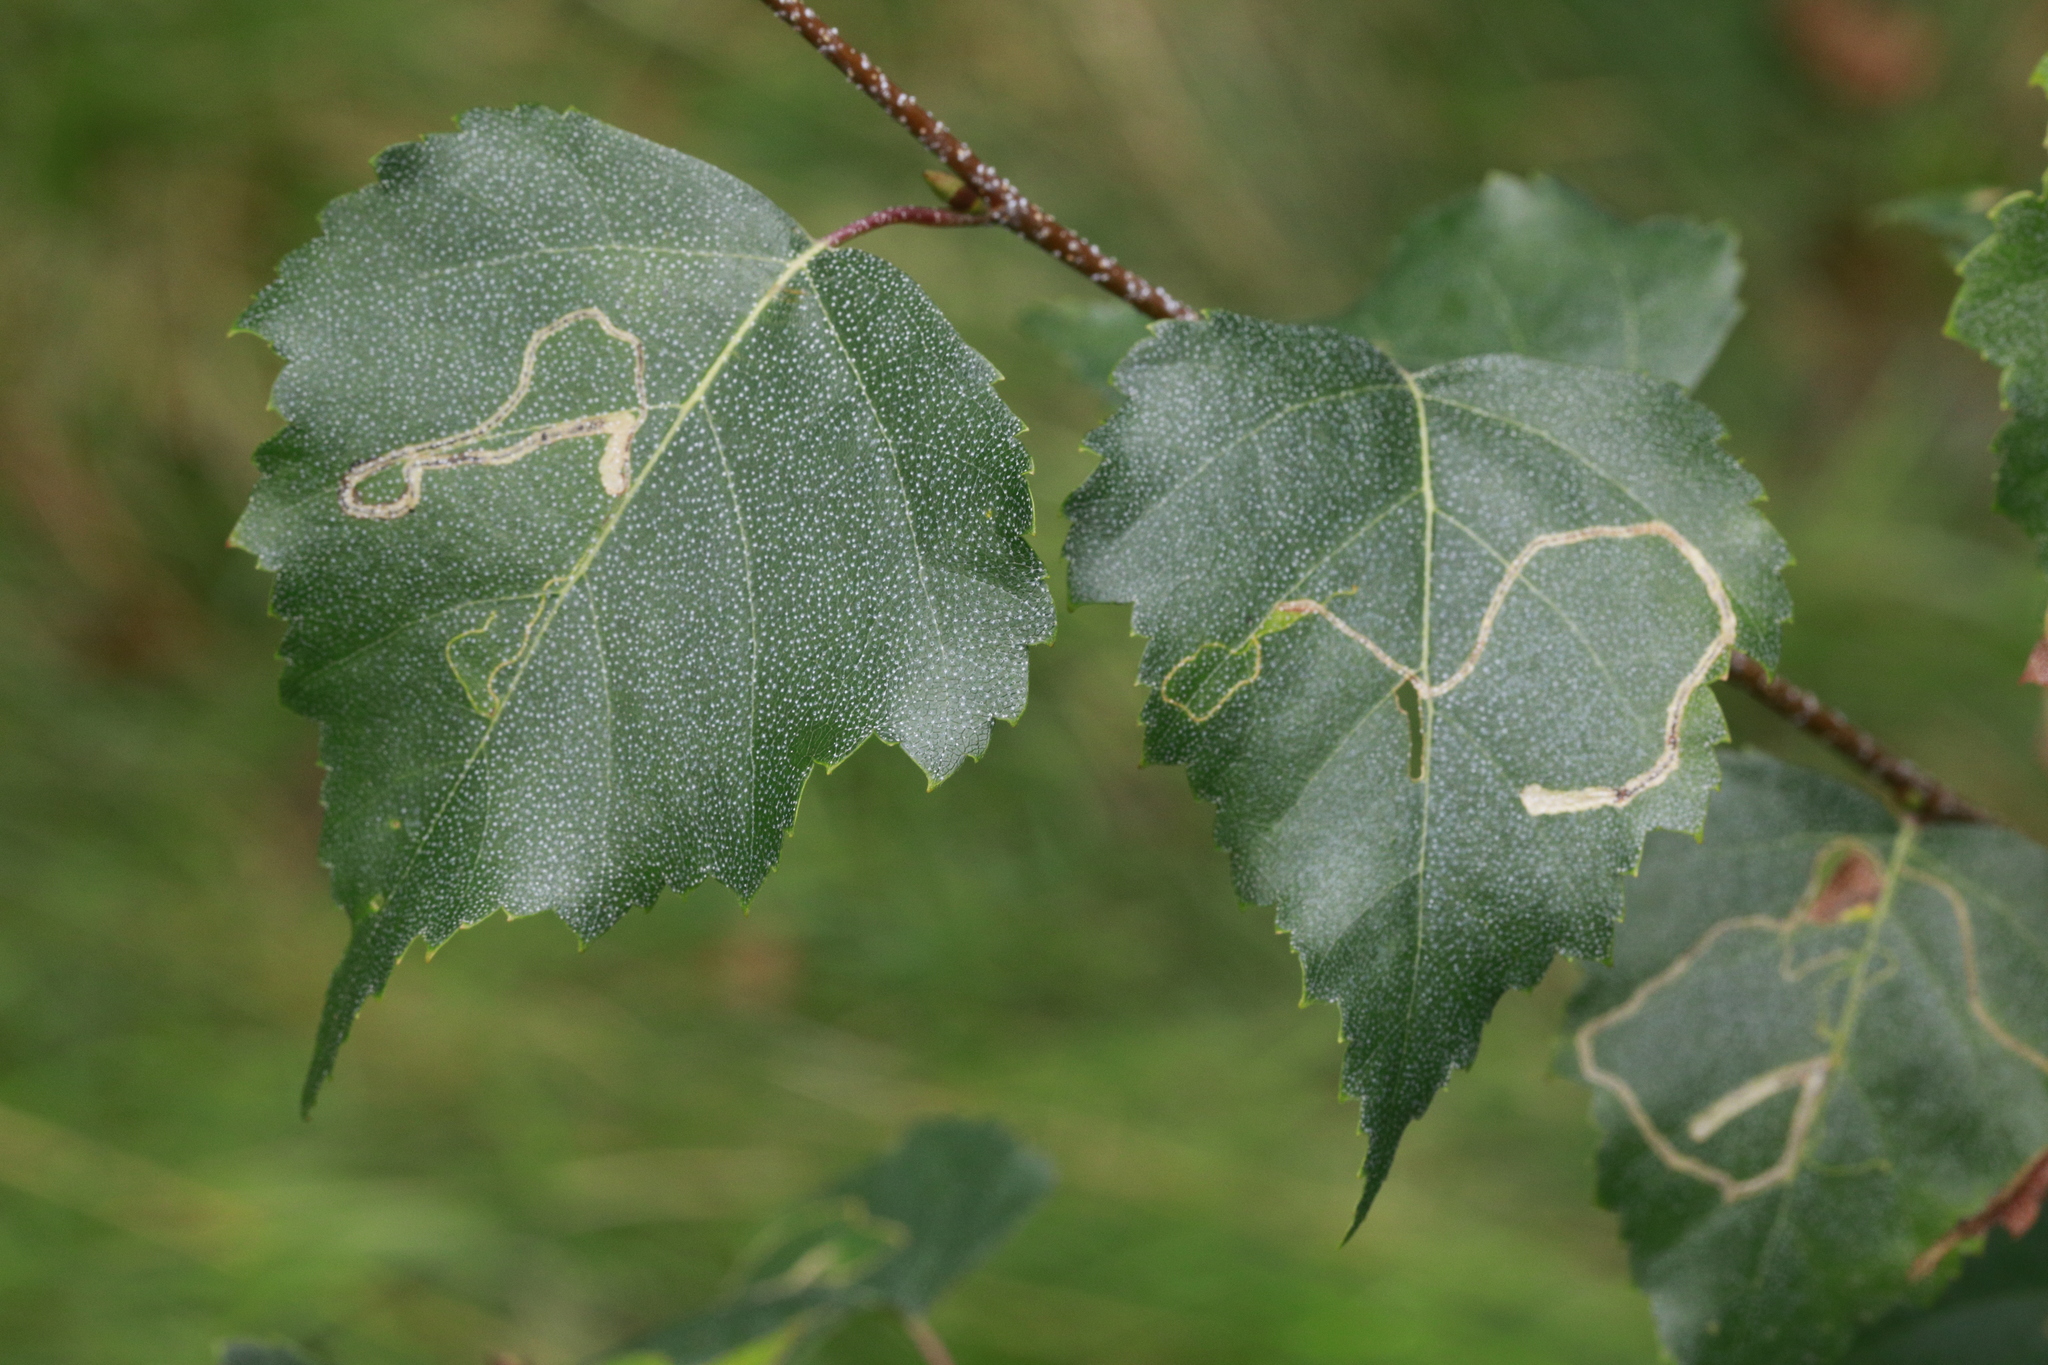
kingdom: Animalia
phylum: Arthropoda
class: Insecta
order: Lepidoptera
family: Lyonetiidae
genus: Lyonetia
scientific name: Lyonetia clerkella
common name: Apple leaf miner
